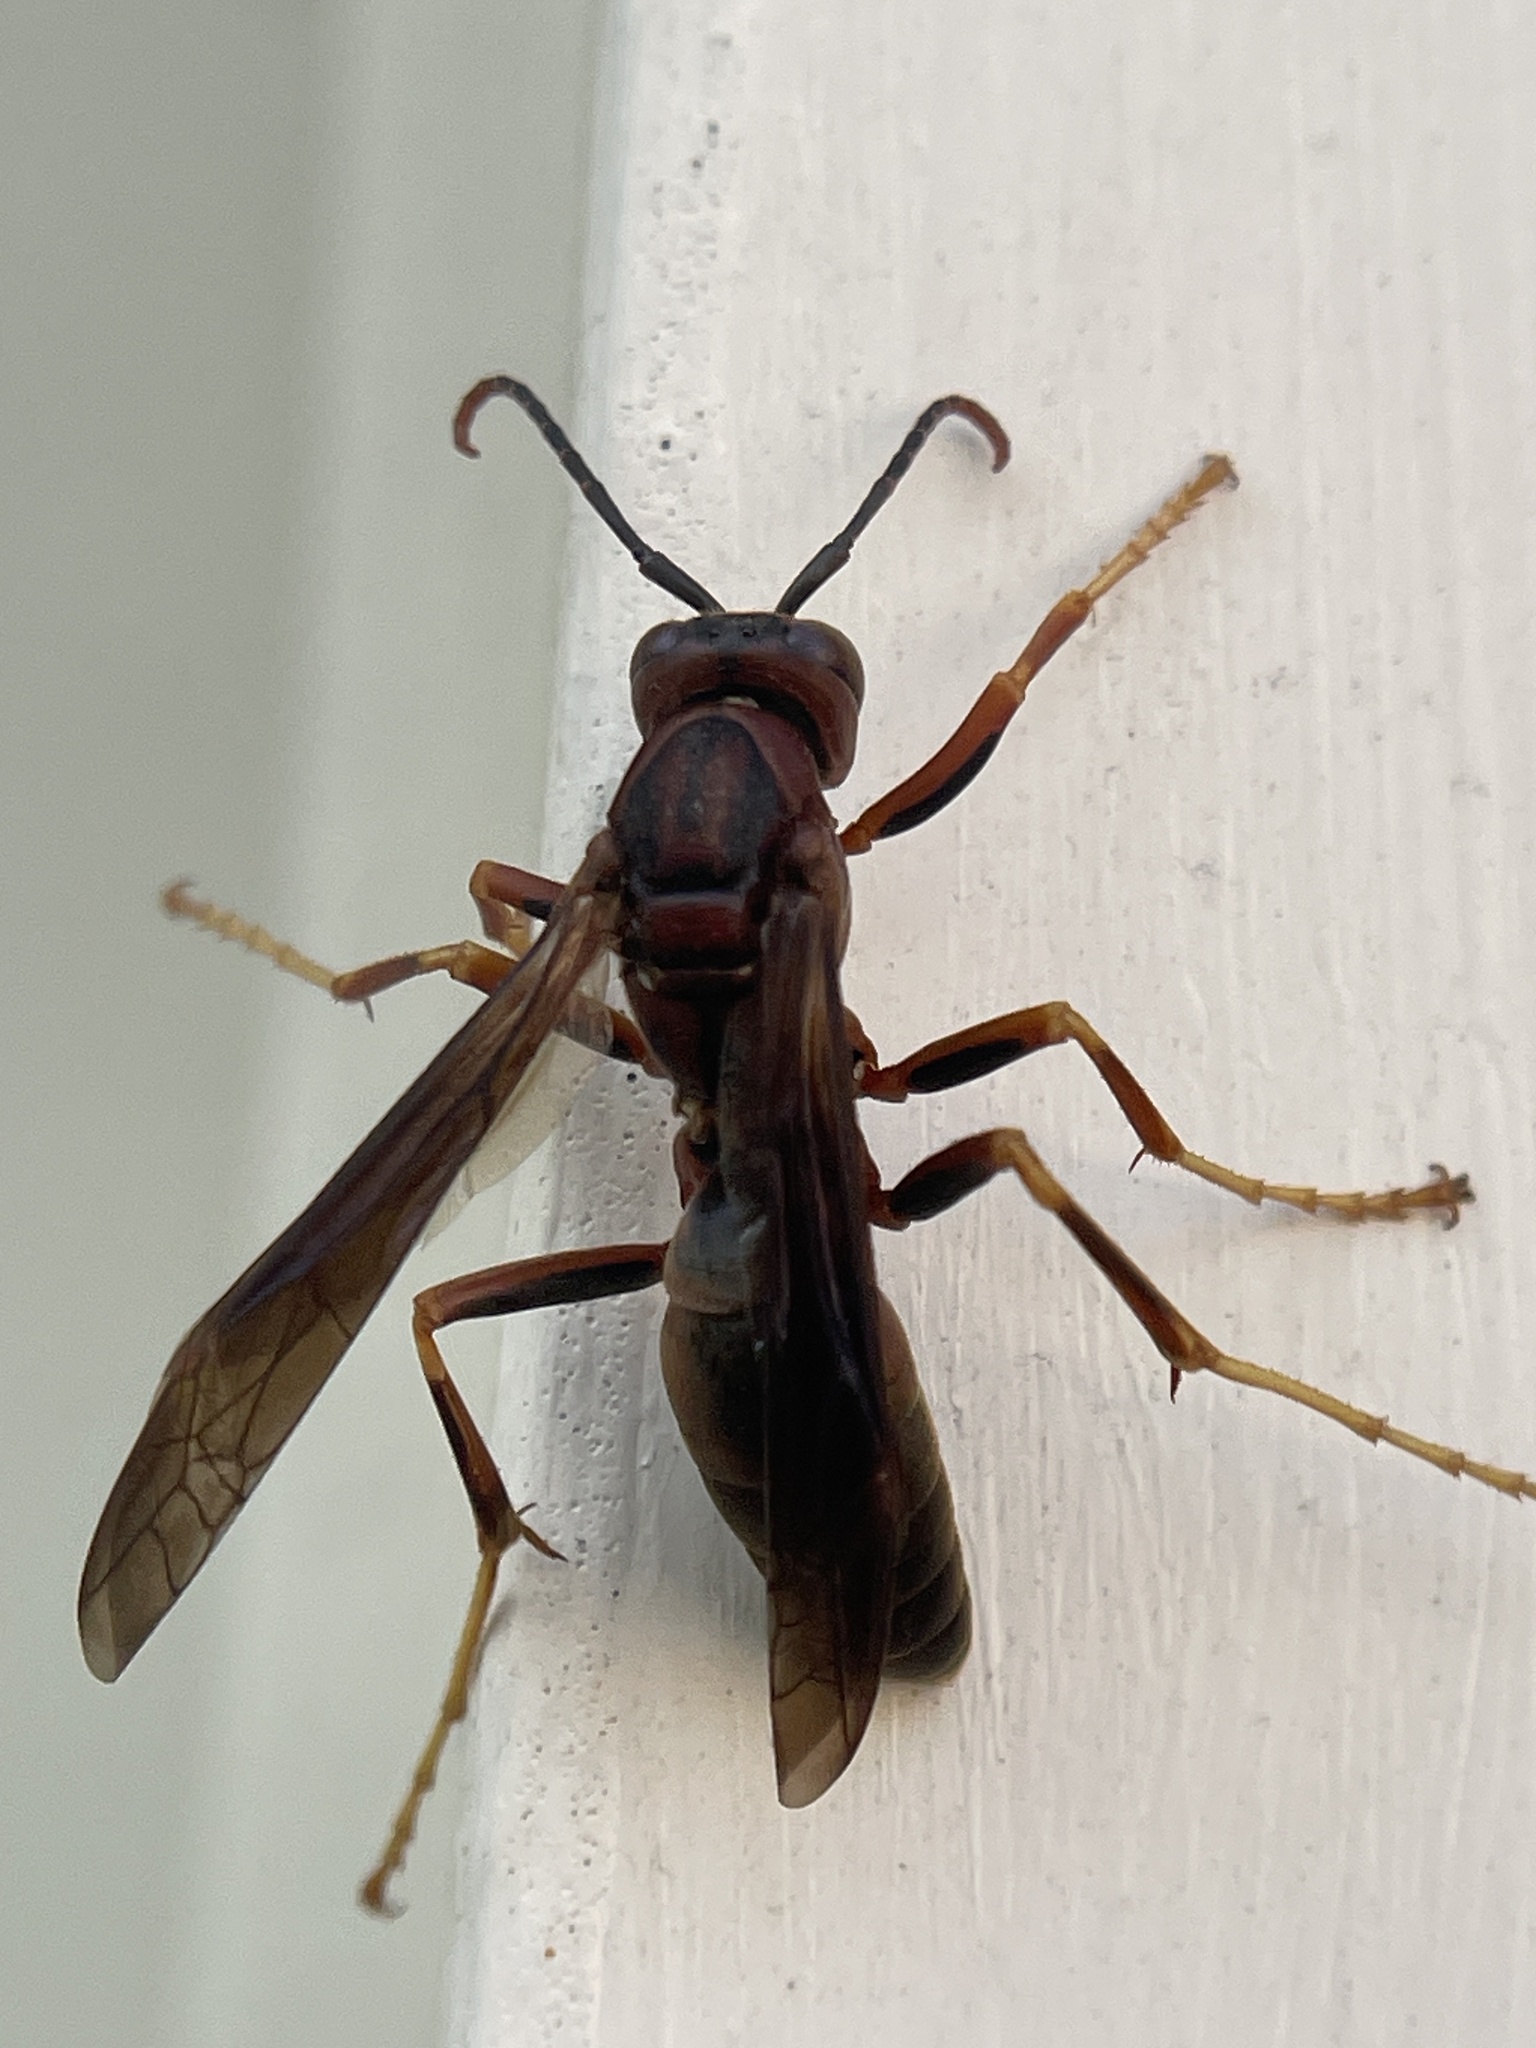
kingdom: Animalia
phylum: Arthropoda
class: Insecta
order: Hymenoptera
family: Eumenidae
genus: Polistes
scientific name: Polistes metricus
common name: Metric paper wasp
